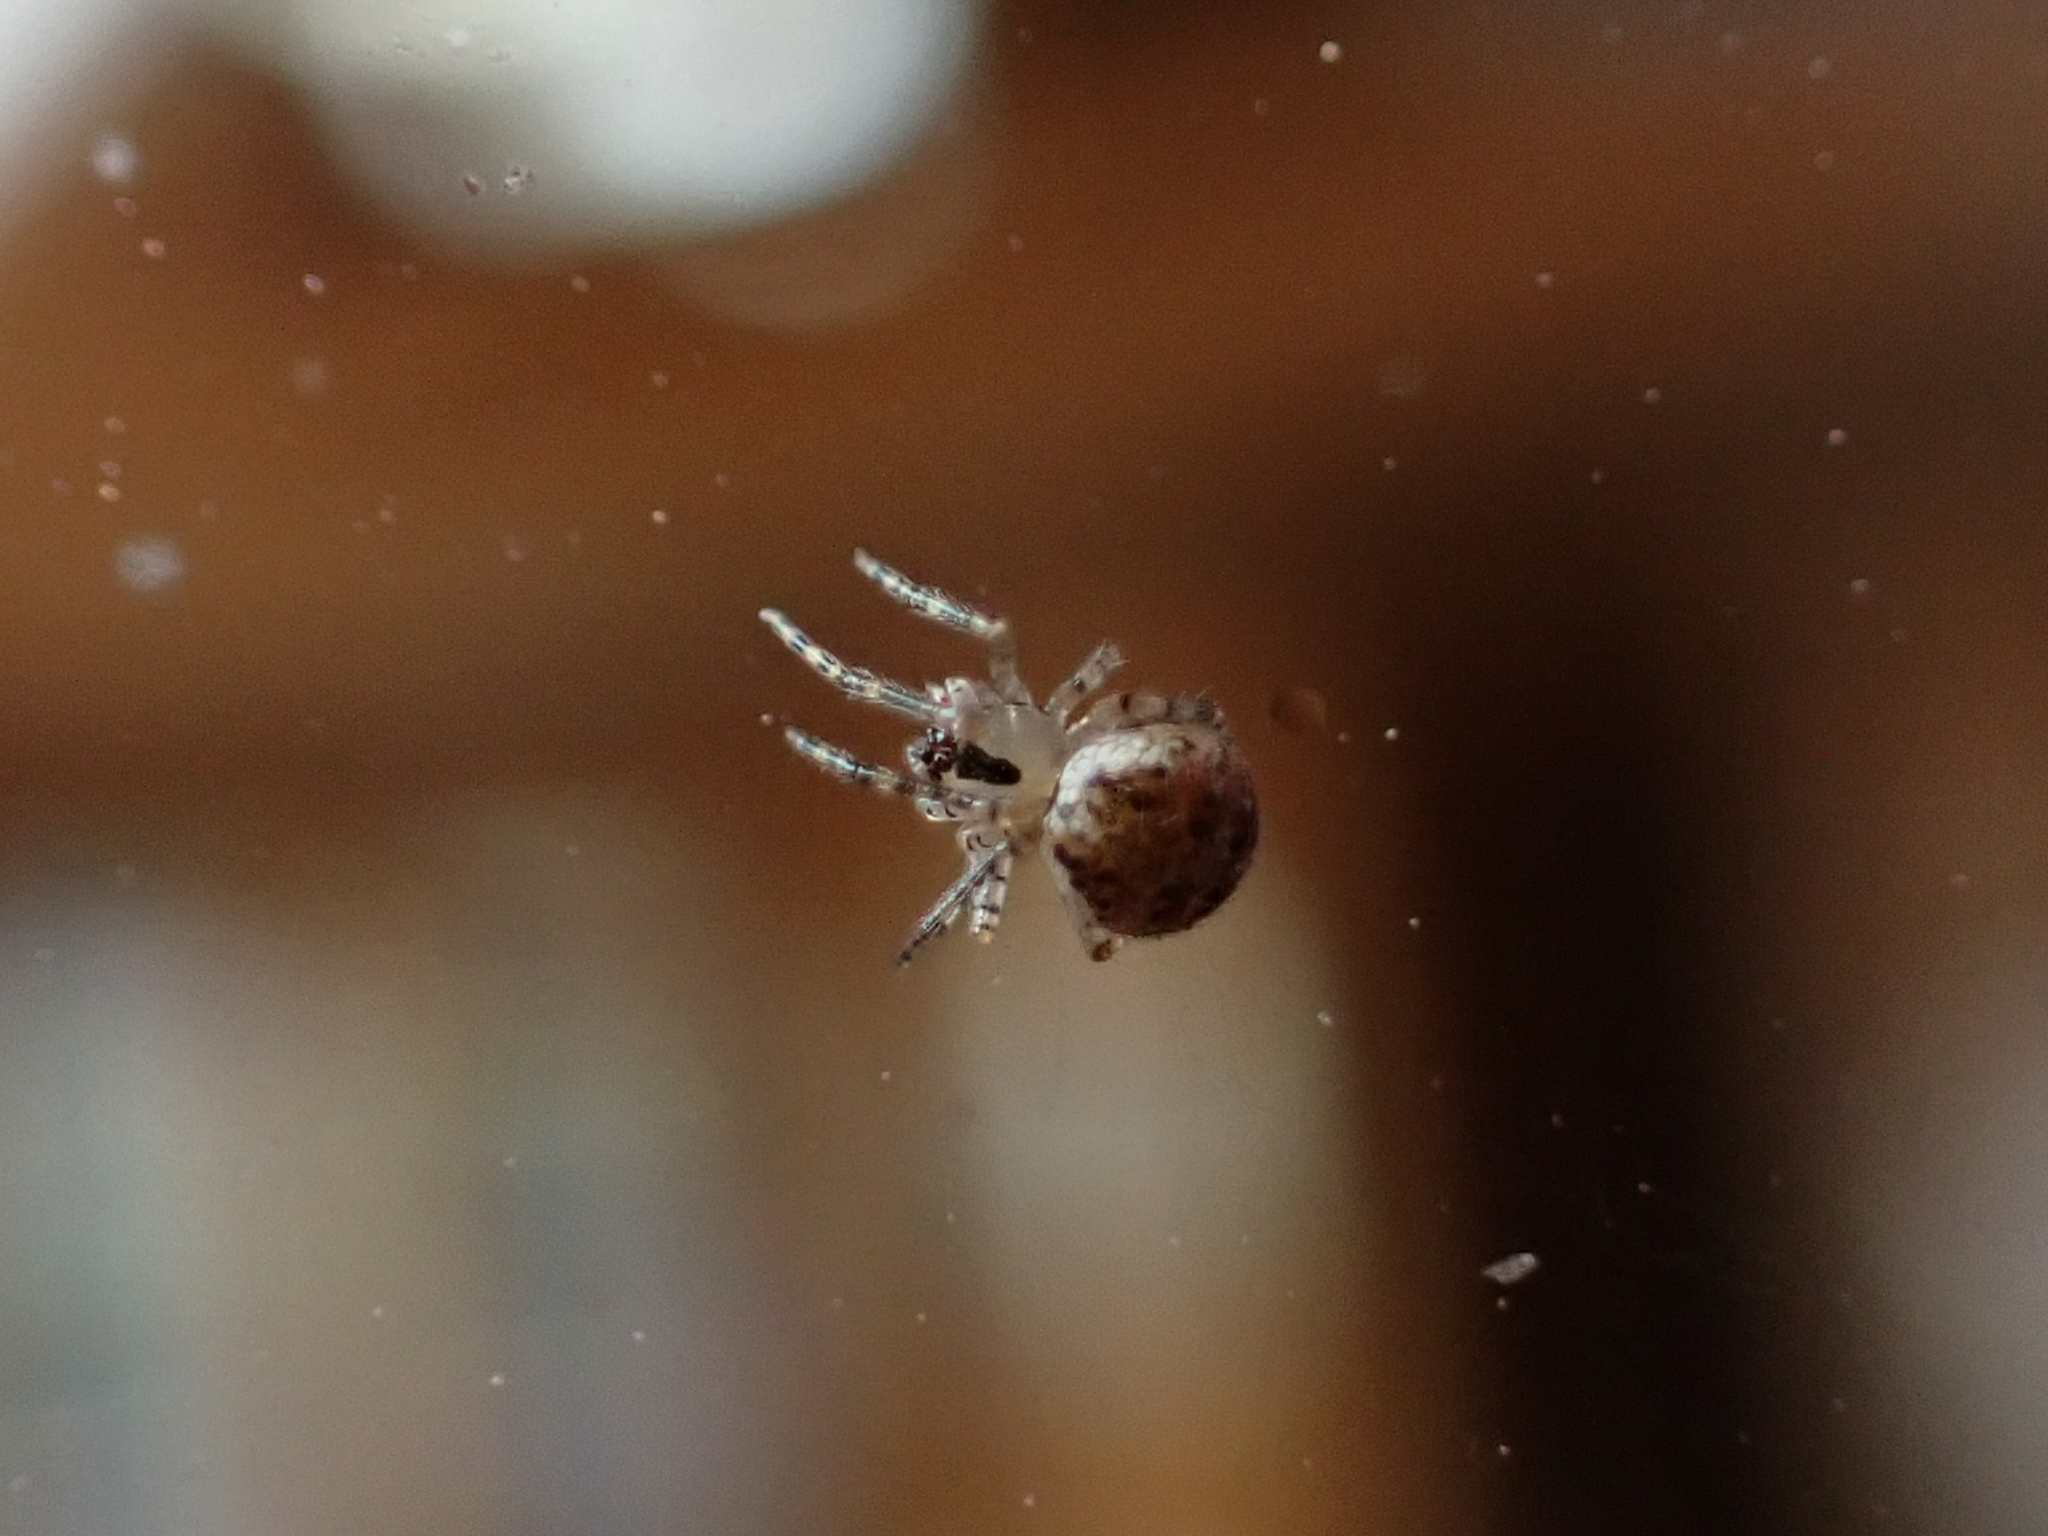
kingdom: Animalia
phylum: Arthropoda
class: Arachnida
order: Araneae
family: Theridiidae
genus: Platnickina
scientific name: Platnickina tincta
